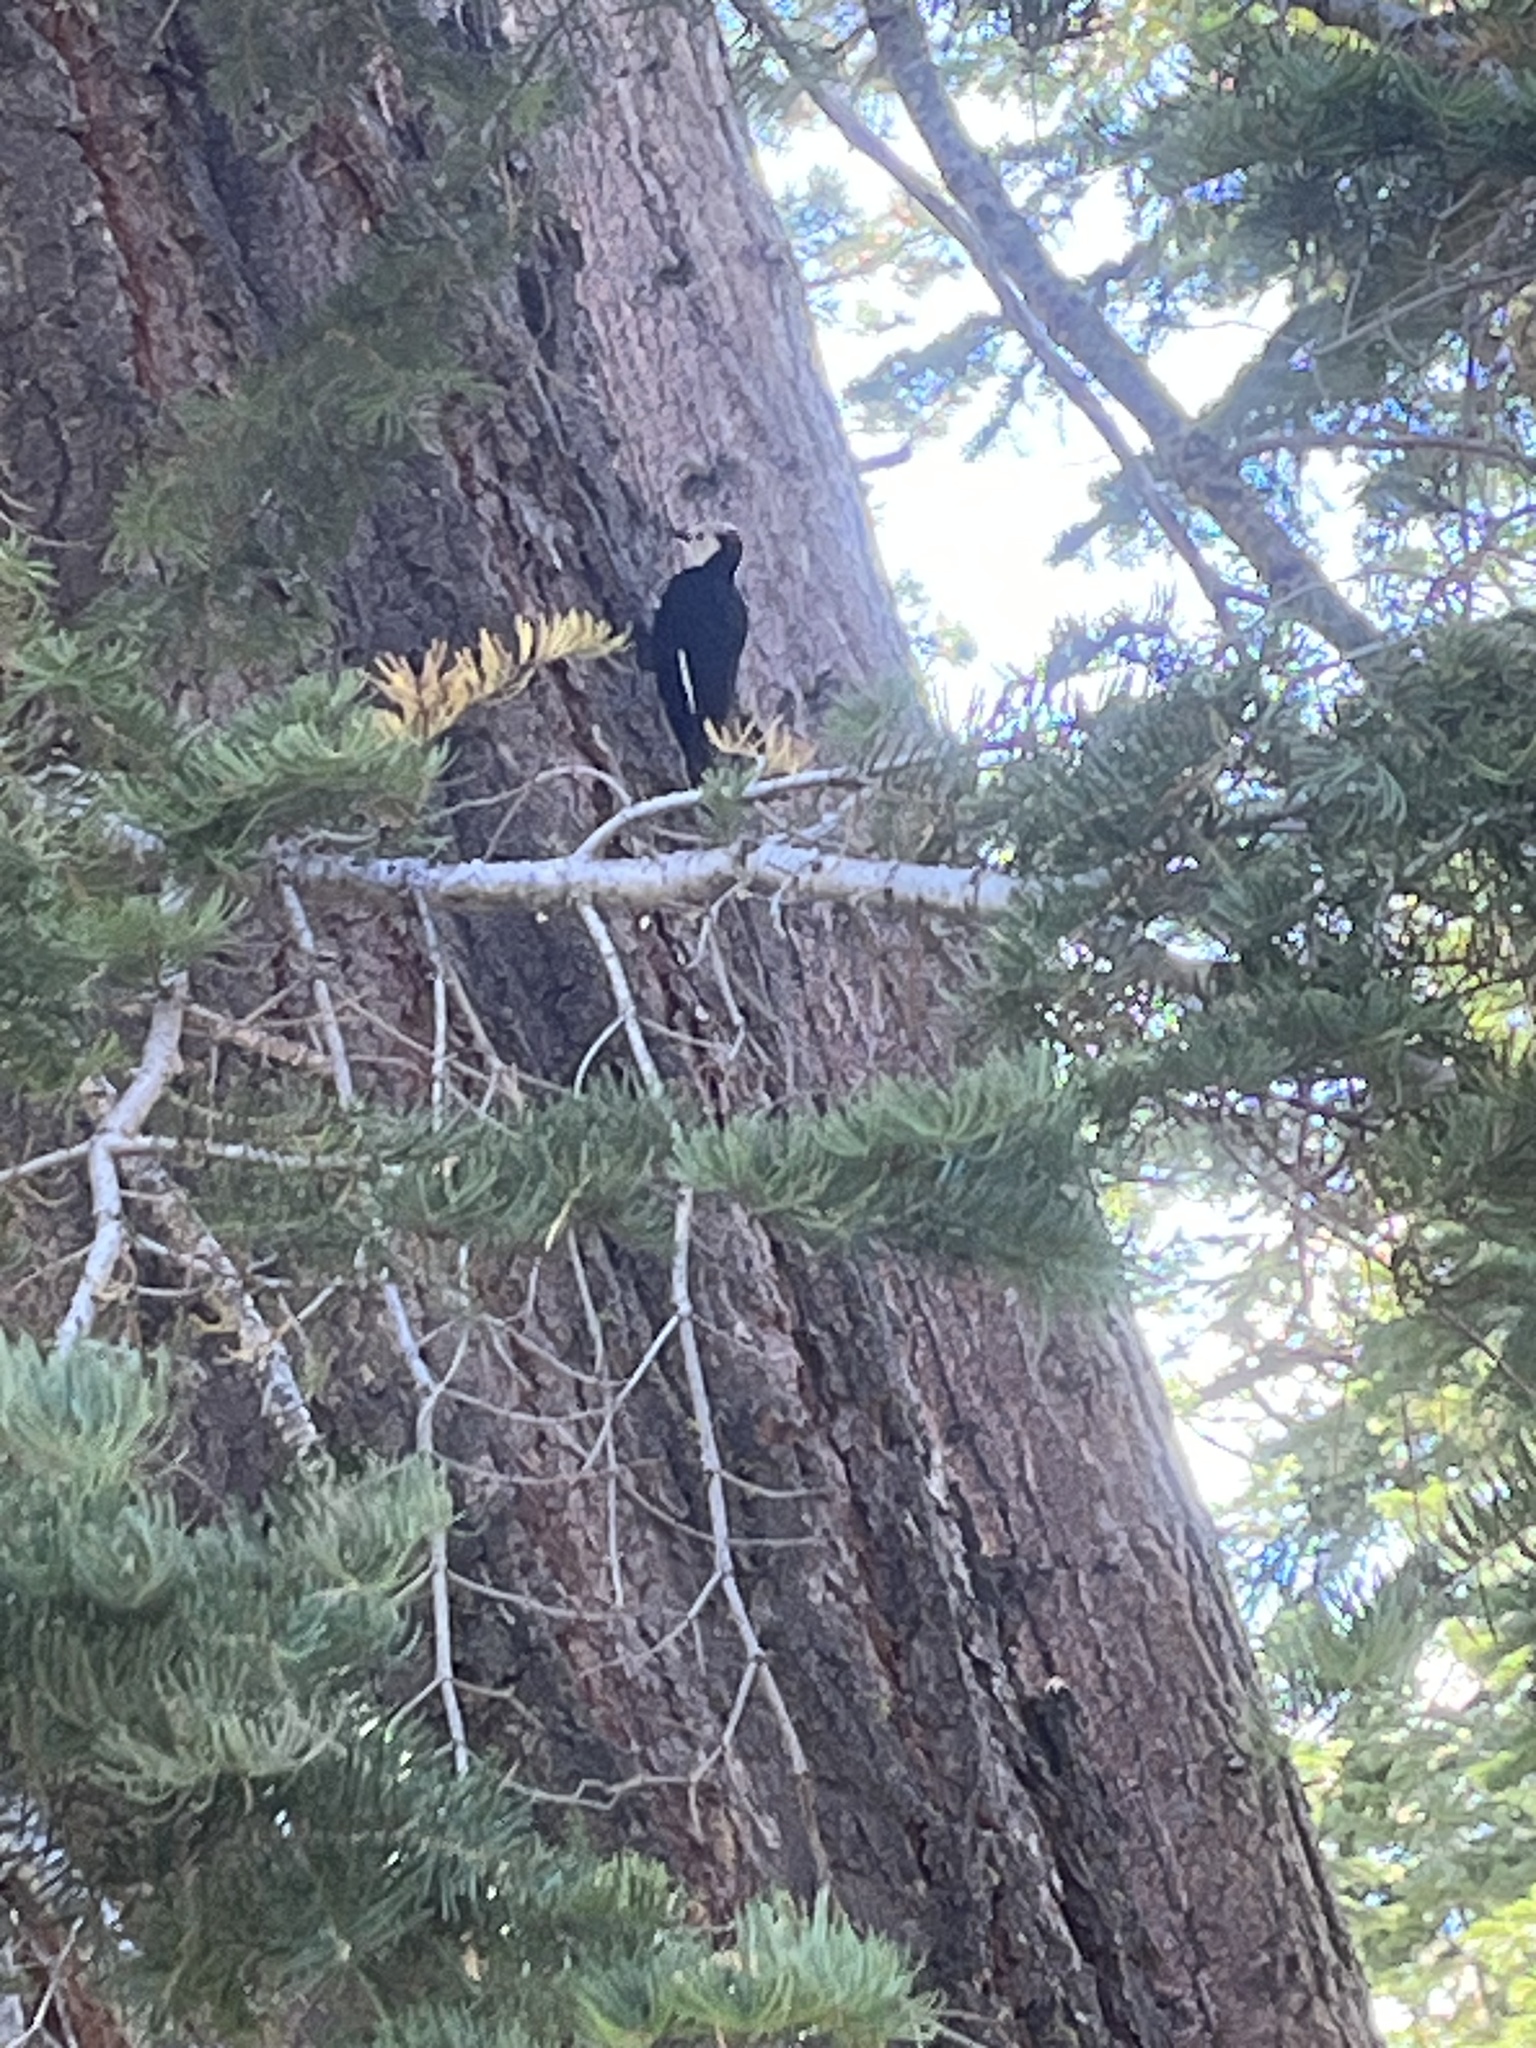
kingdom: Animalia
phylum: Chordata
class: Aves
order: Piciformes
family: Picidae
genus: Leuconotopicus
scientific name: Leuconotopicus albolarvatus
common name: White-headed woodpecker
